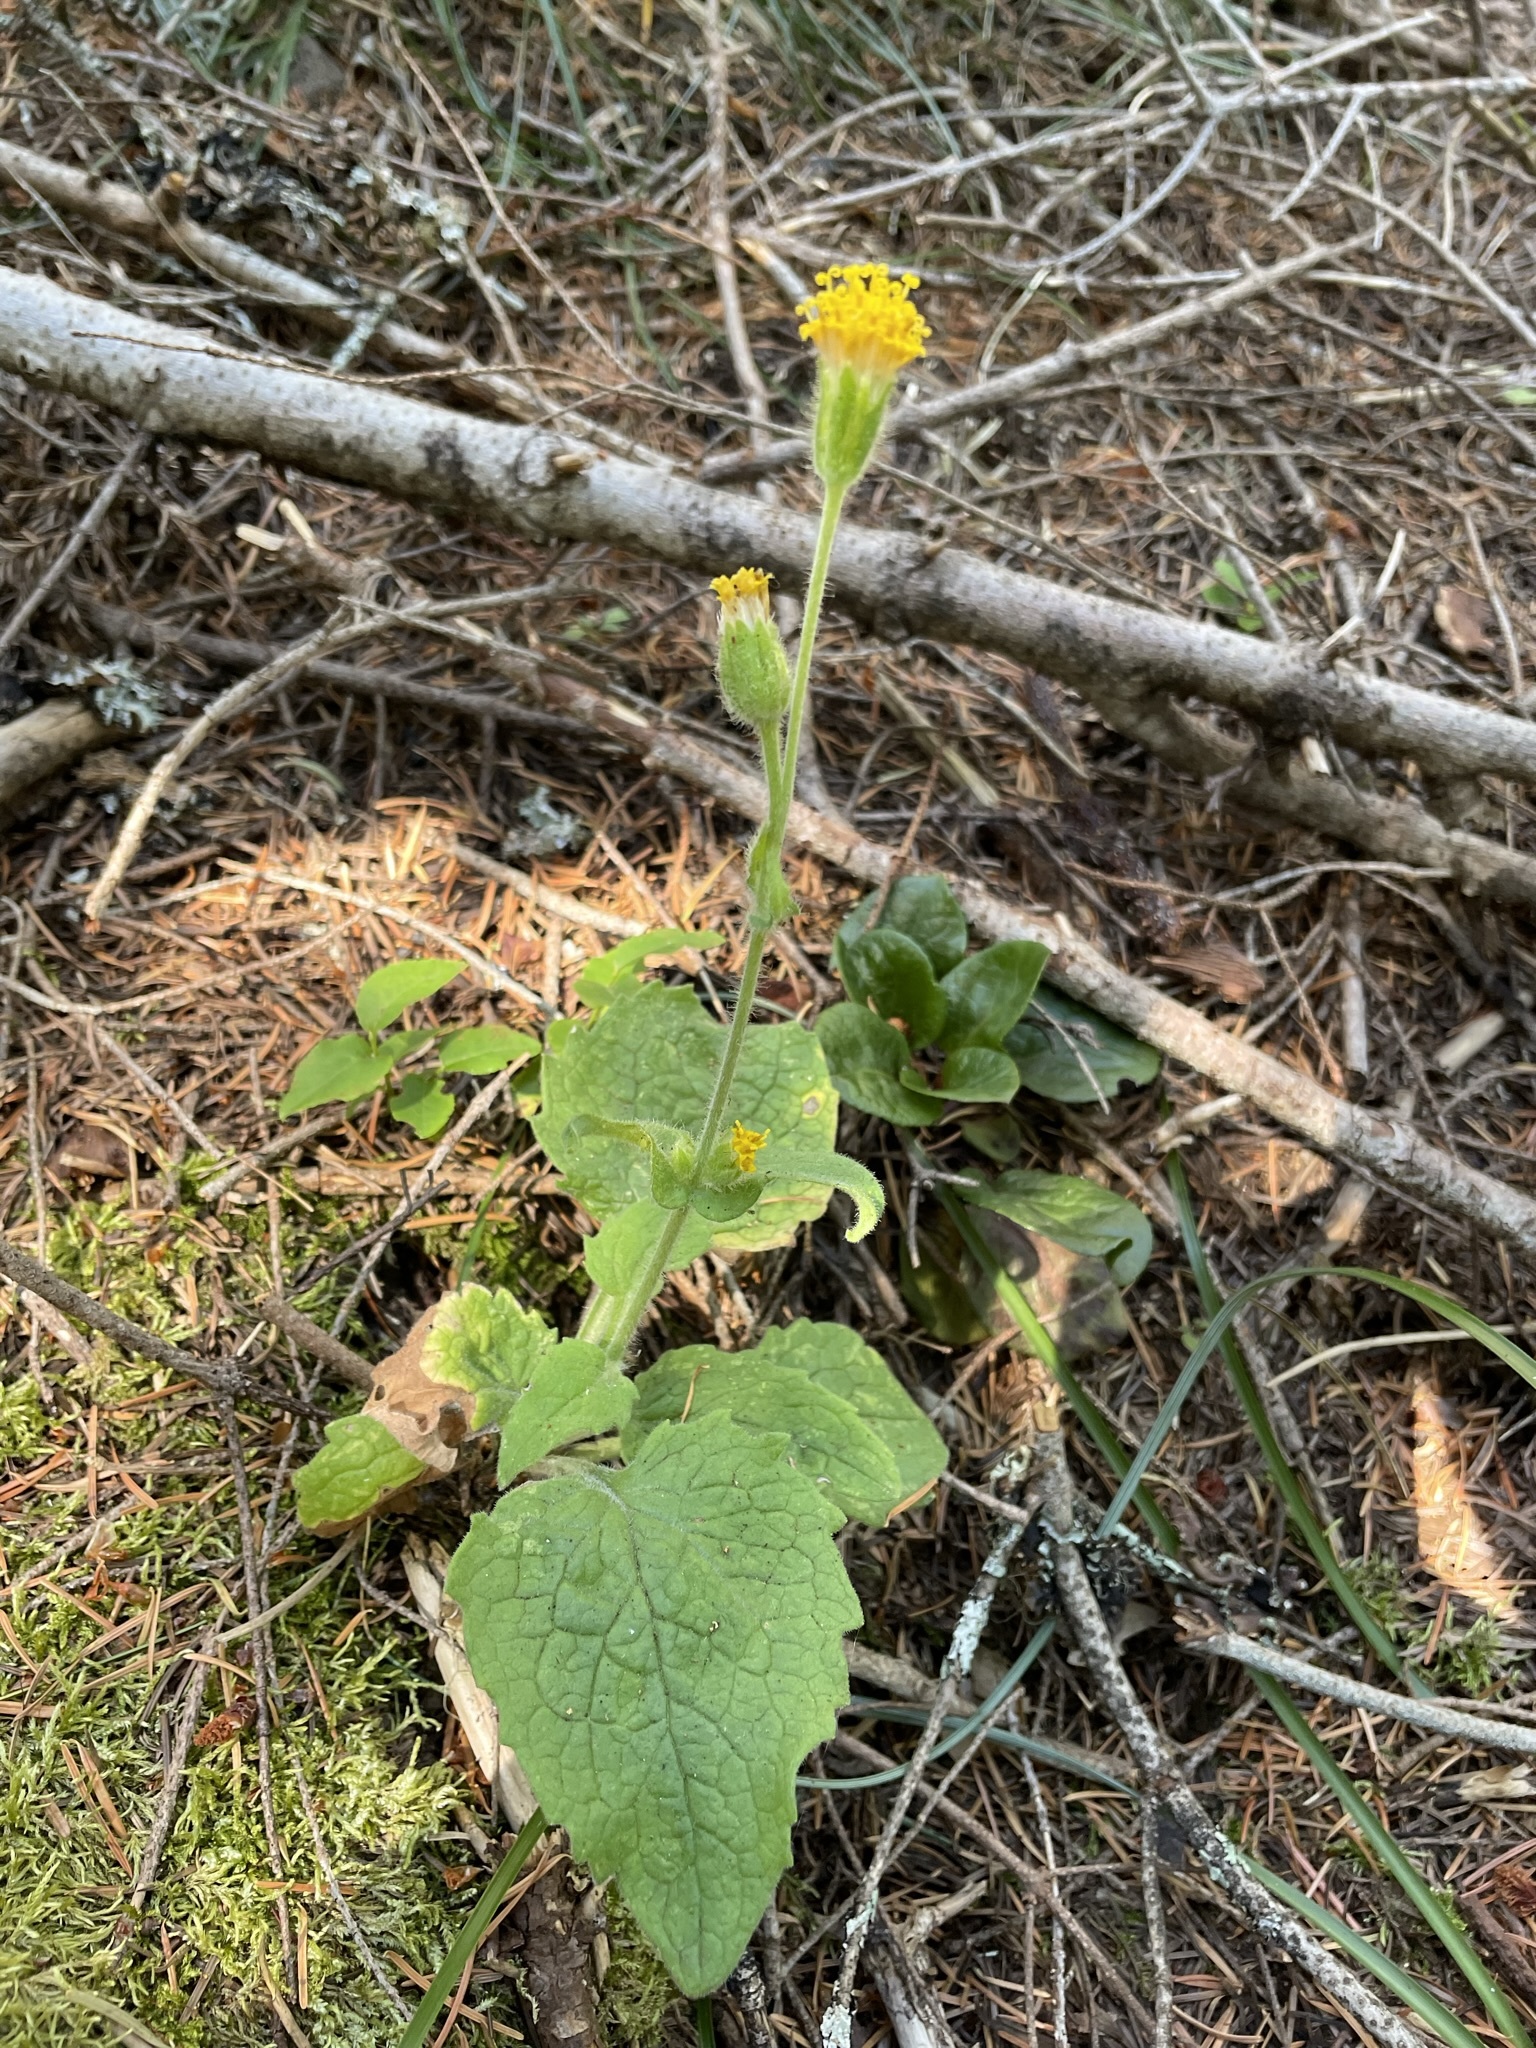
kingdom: Plantae
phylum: Tracheophyta
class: Magnoliopsida
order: Asterales
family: Asteraceae
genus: Arnica
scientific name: Arnica discoidea
